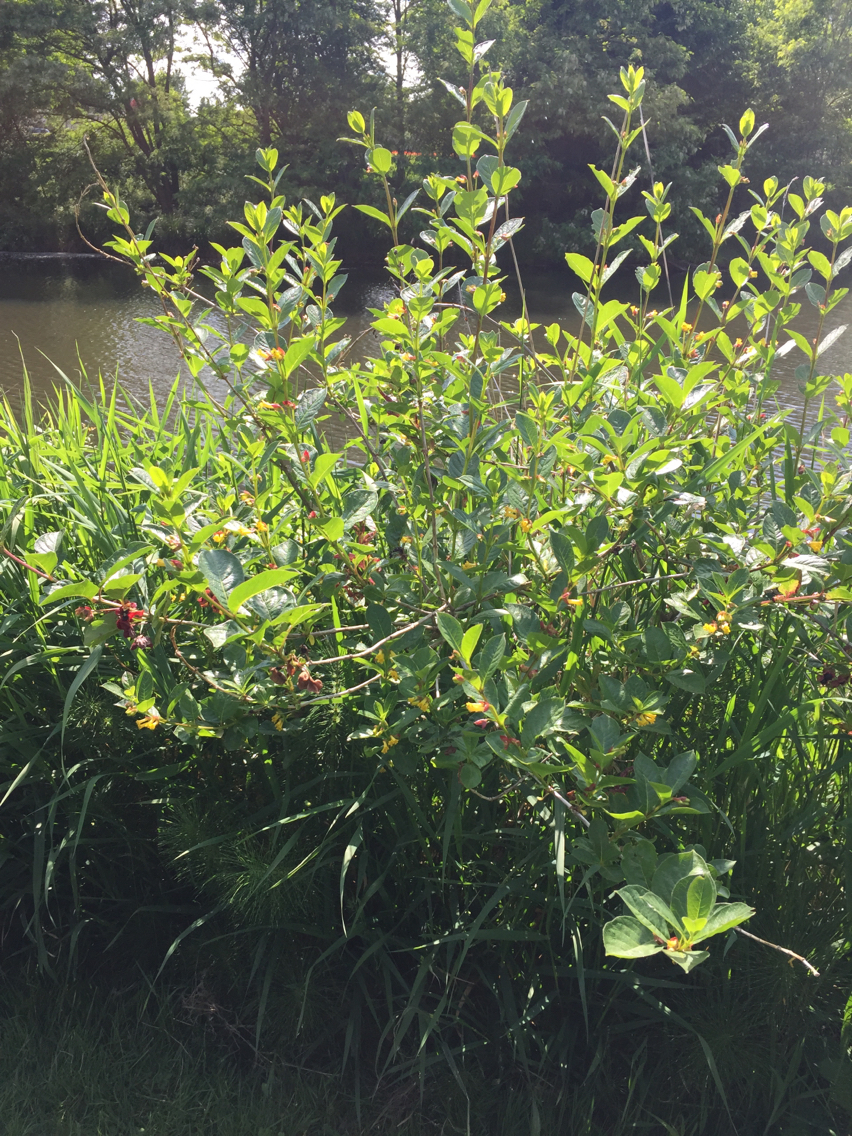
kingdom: Plantae
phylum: Tracheophyta
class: Magnoliopsida
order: Dipsacales
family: Caprifoliaceae
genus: Lonicera
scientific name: Lonicera involucrata
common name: Californian honeysuckle
